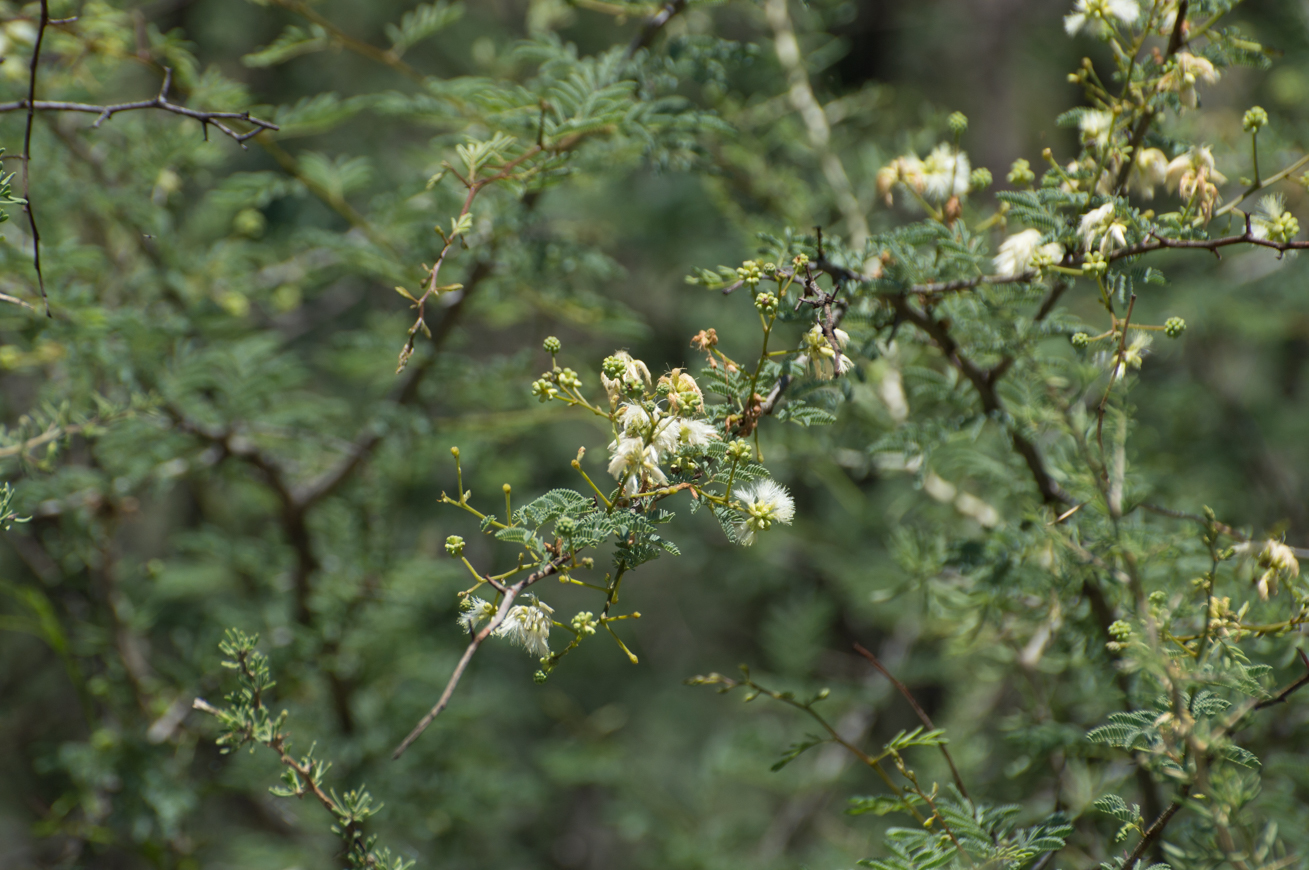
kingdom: Plantae
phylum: Tracheophyta
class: Magnoliopsida
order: Fabales
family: Fabaceae
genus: Senegalia
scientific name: Senegalia gilliesii
